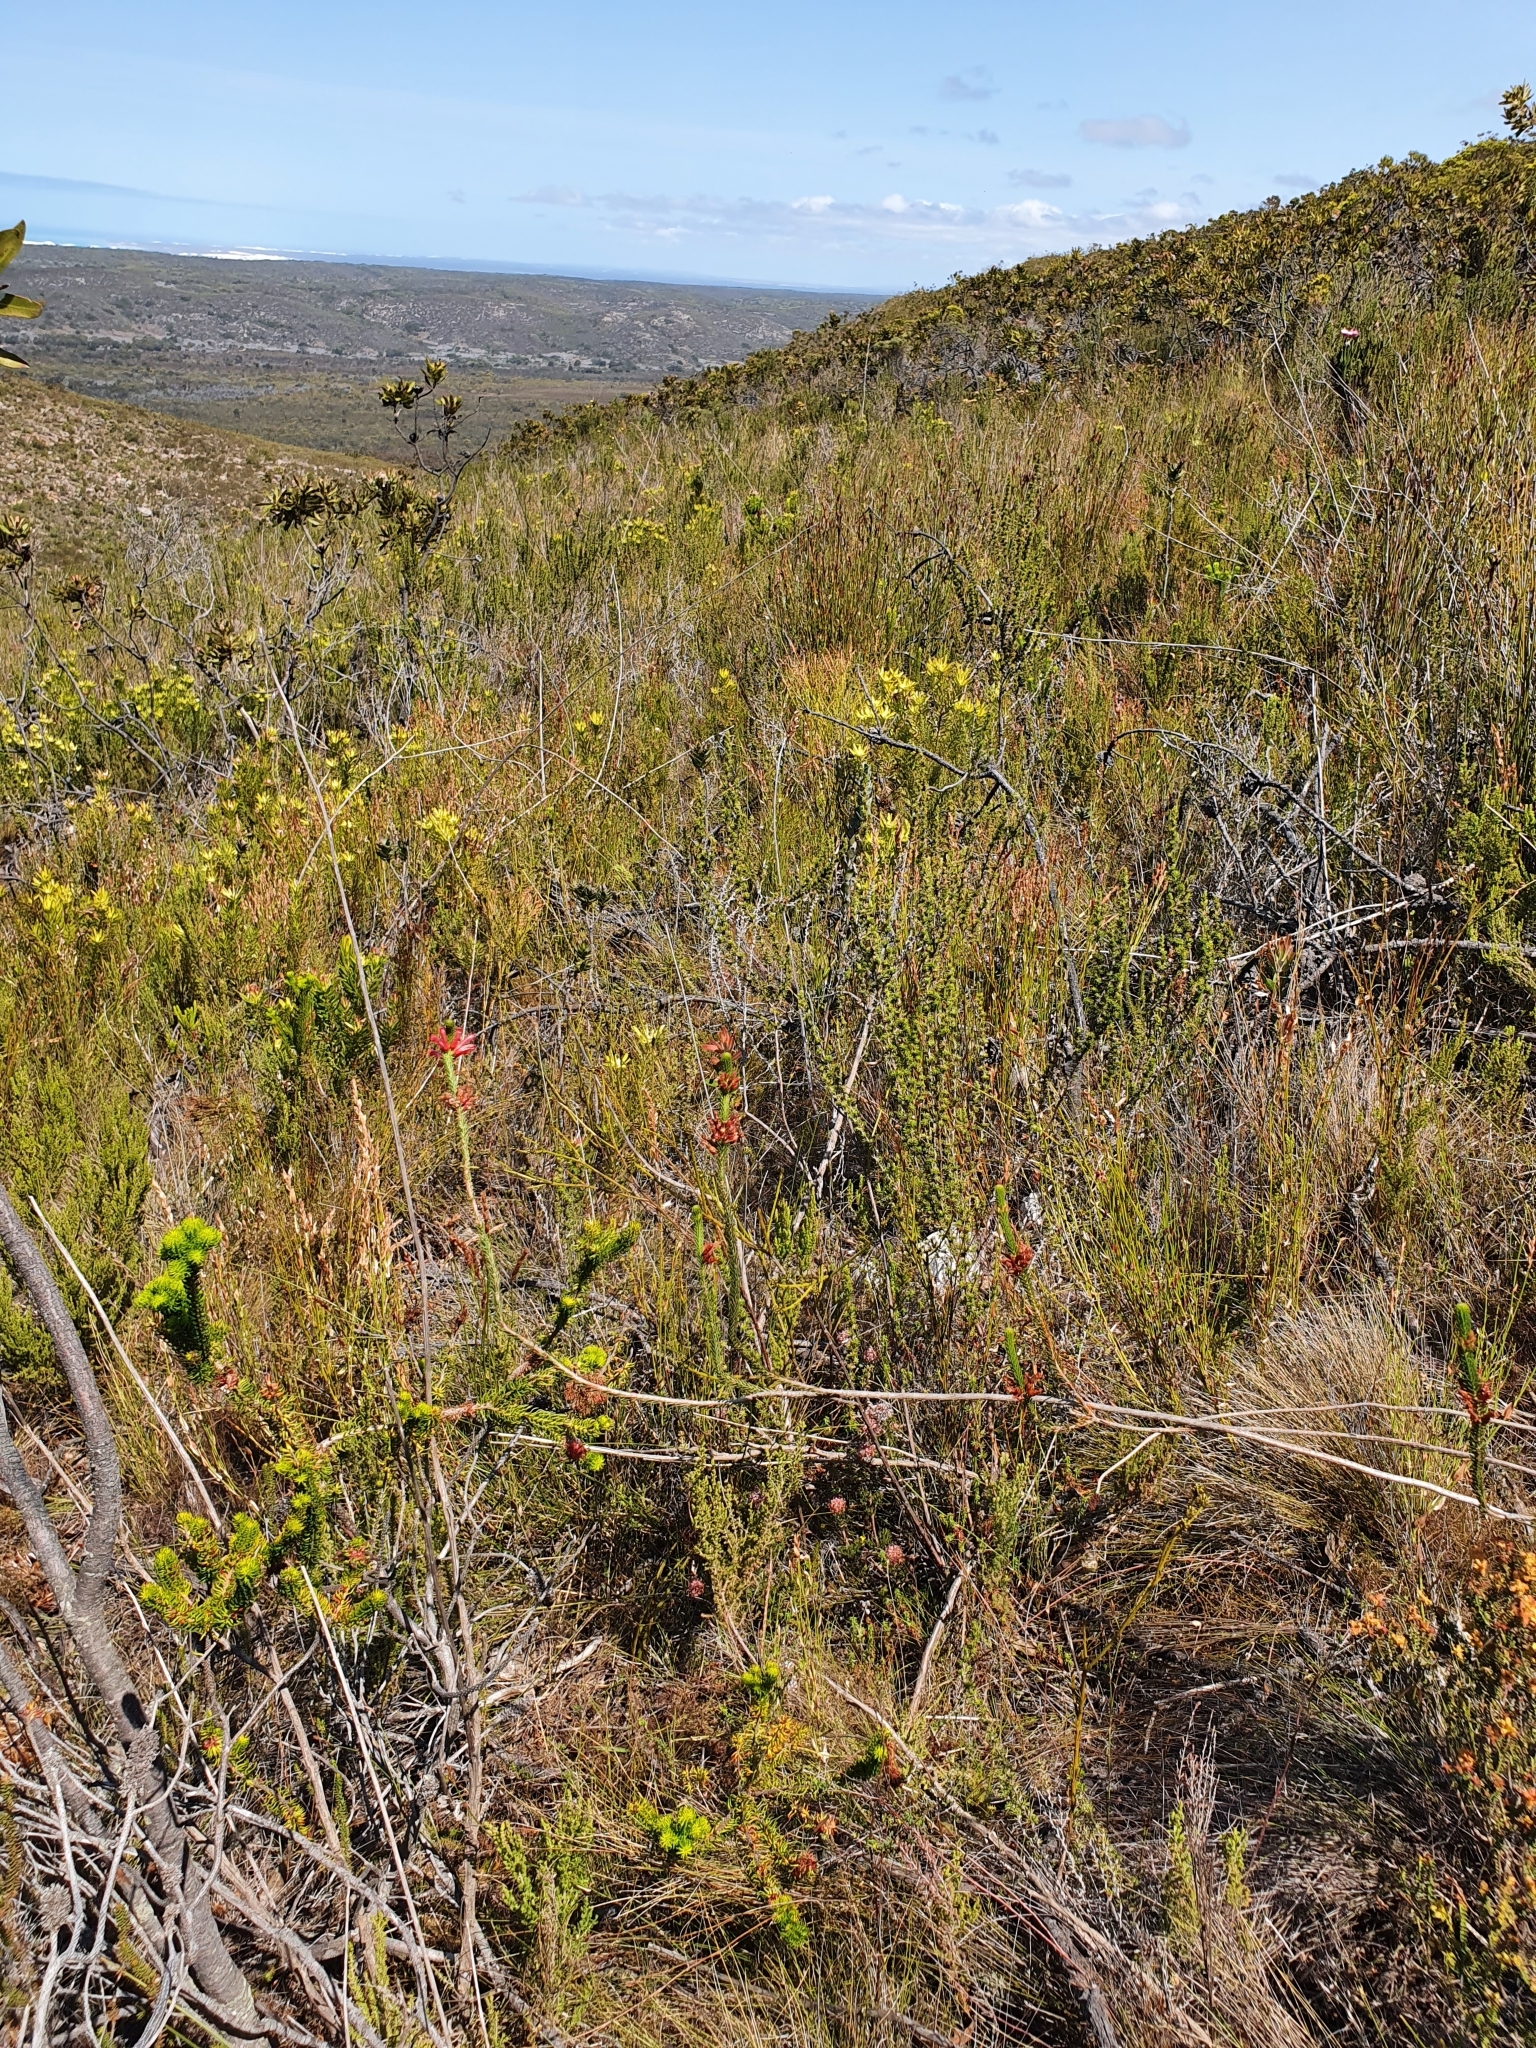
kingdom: Plantae
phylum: Tracheophyta
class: Magnoliopsida
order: Ericales
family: Ericaceae
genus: Erica
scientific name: Erica regia
